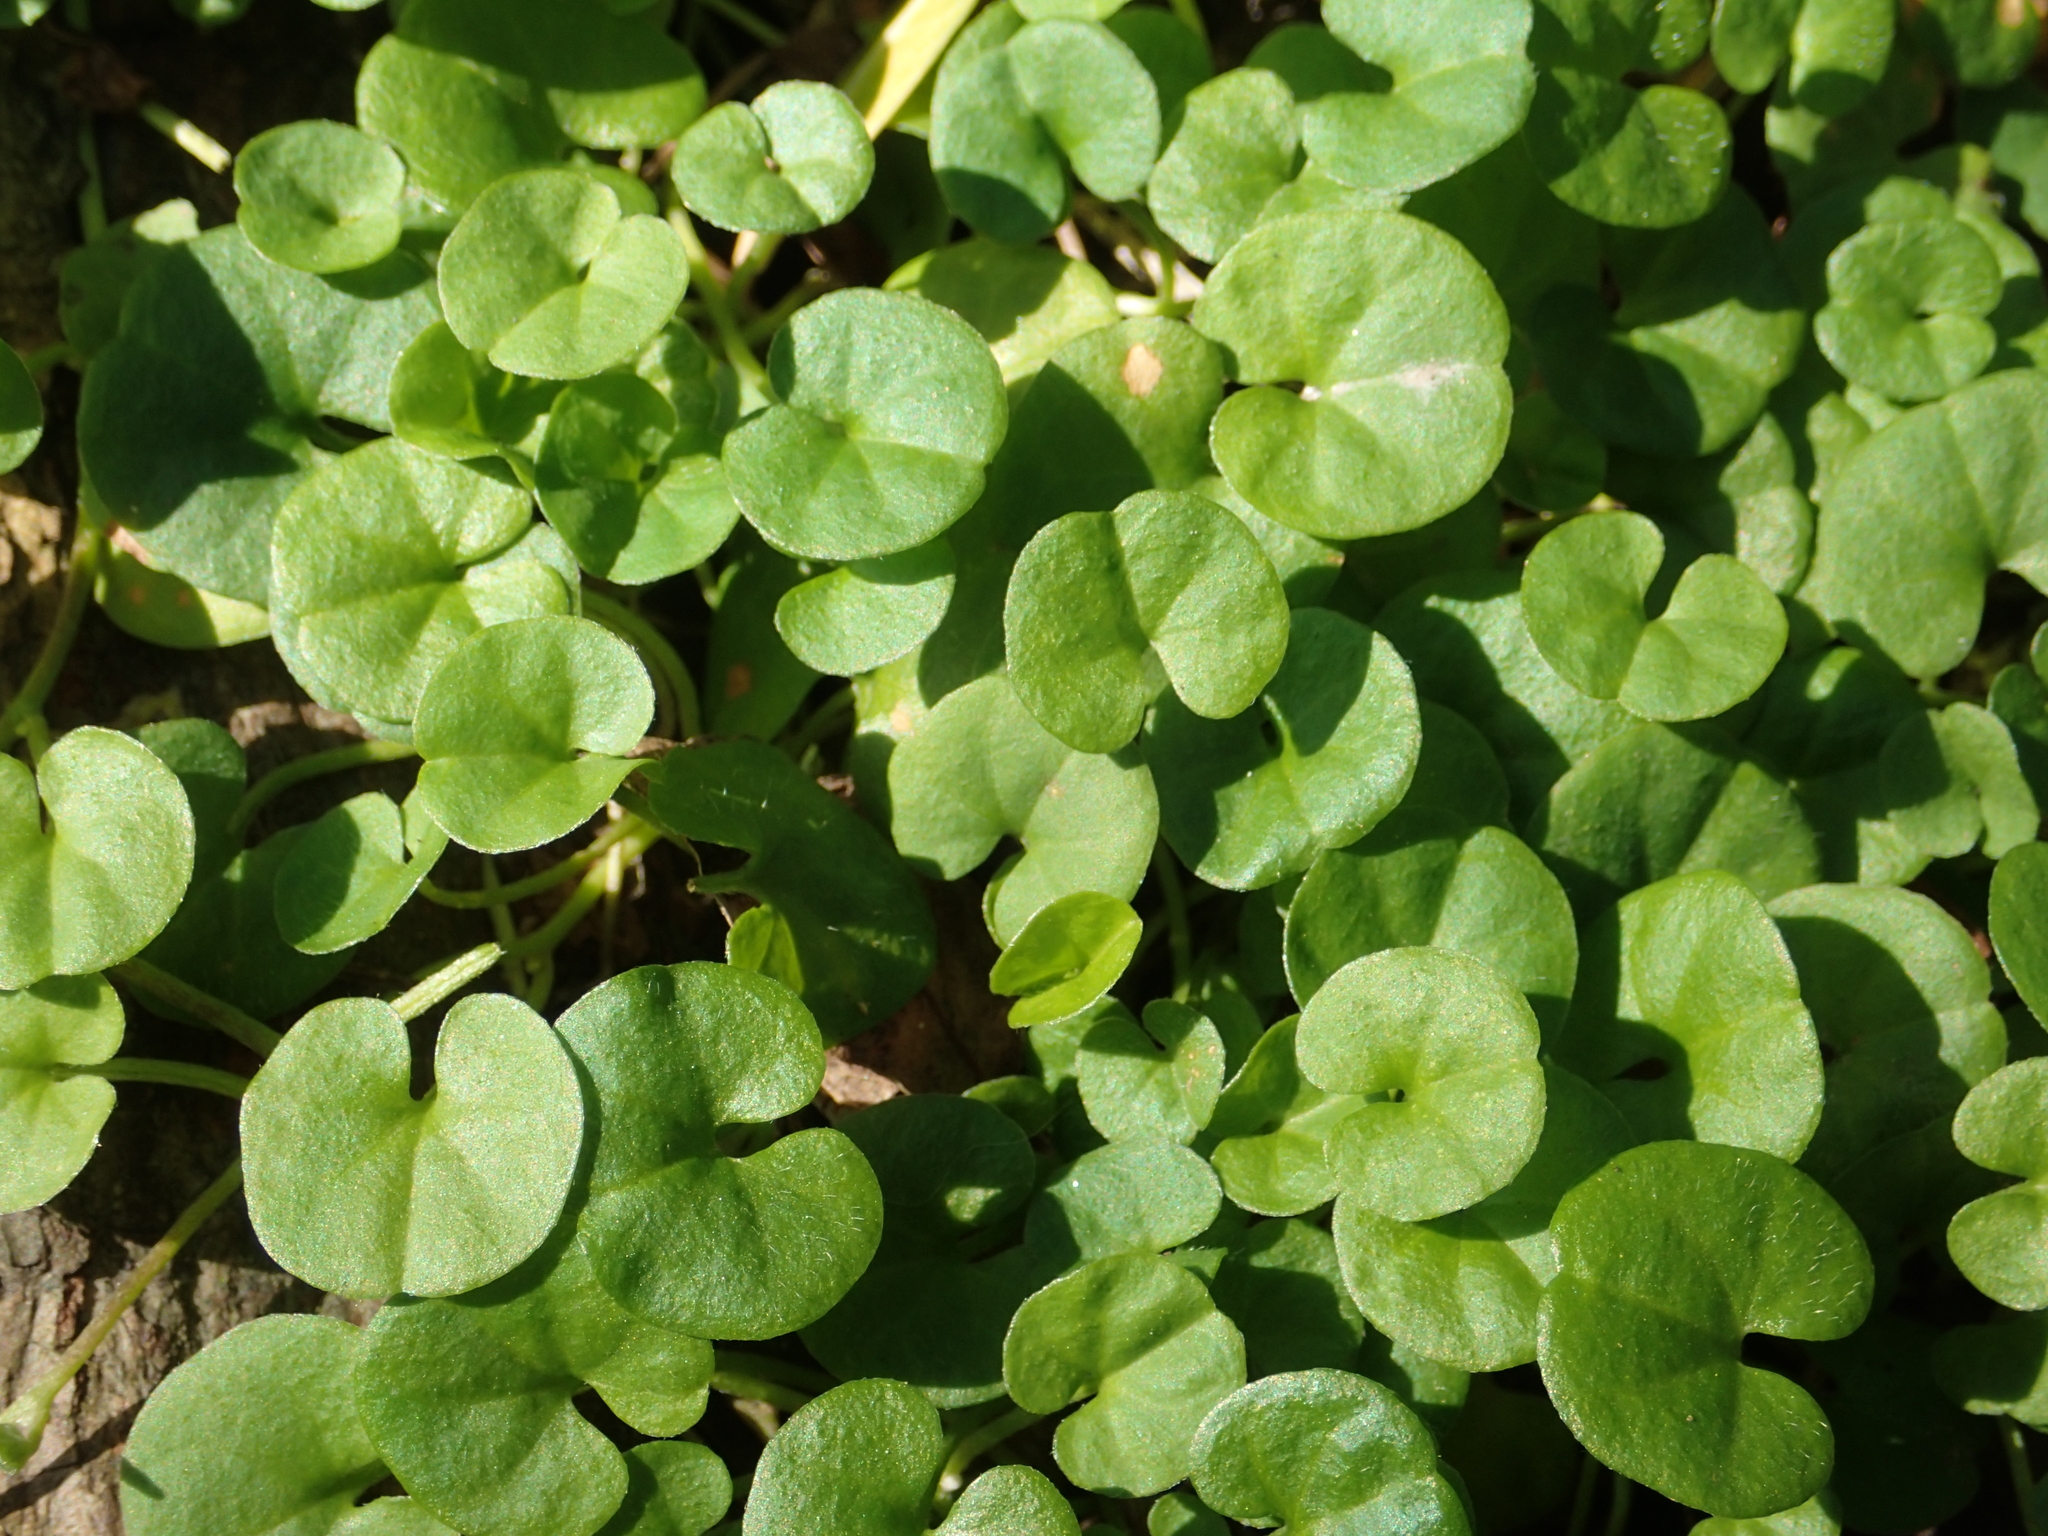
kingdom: Plantae
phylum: Tracheophyta
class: Magnoliopsida
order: Solanales
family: Convolvulaceae
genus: Dichondra
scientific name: Dichondra micrantha
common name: Kidneyweed
